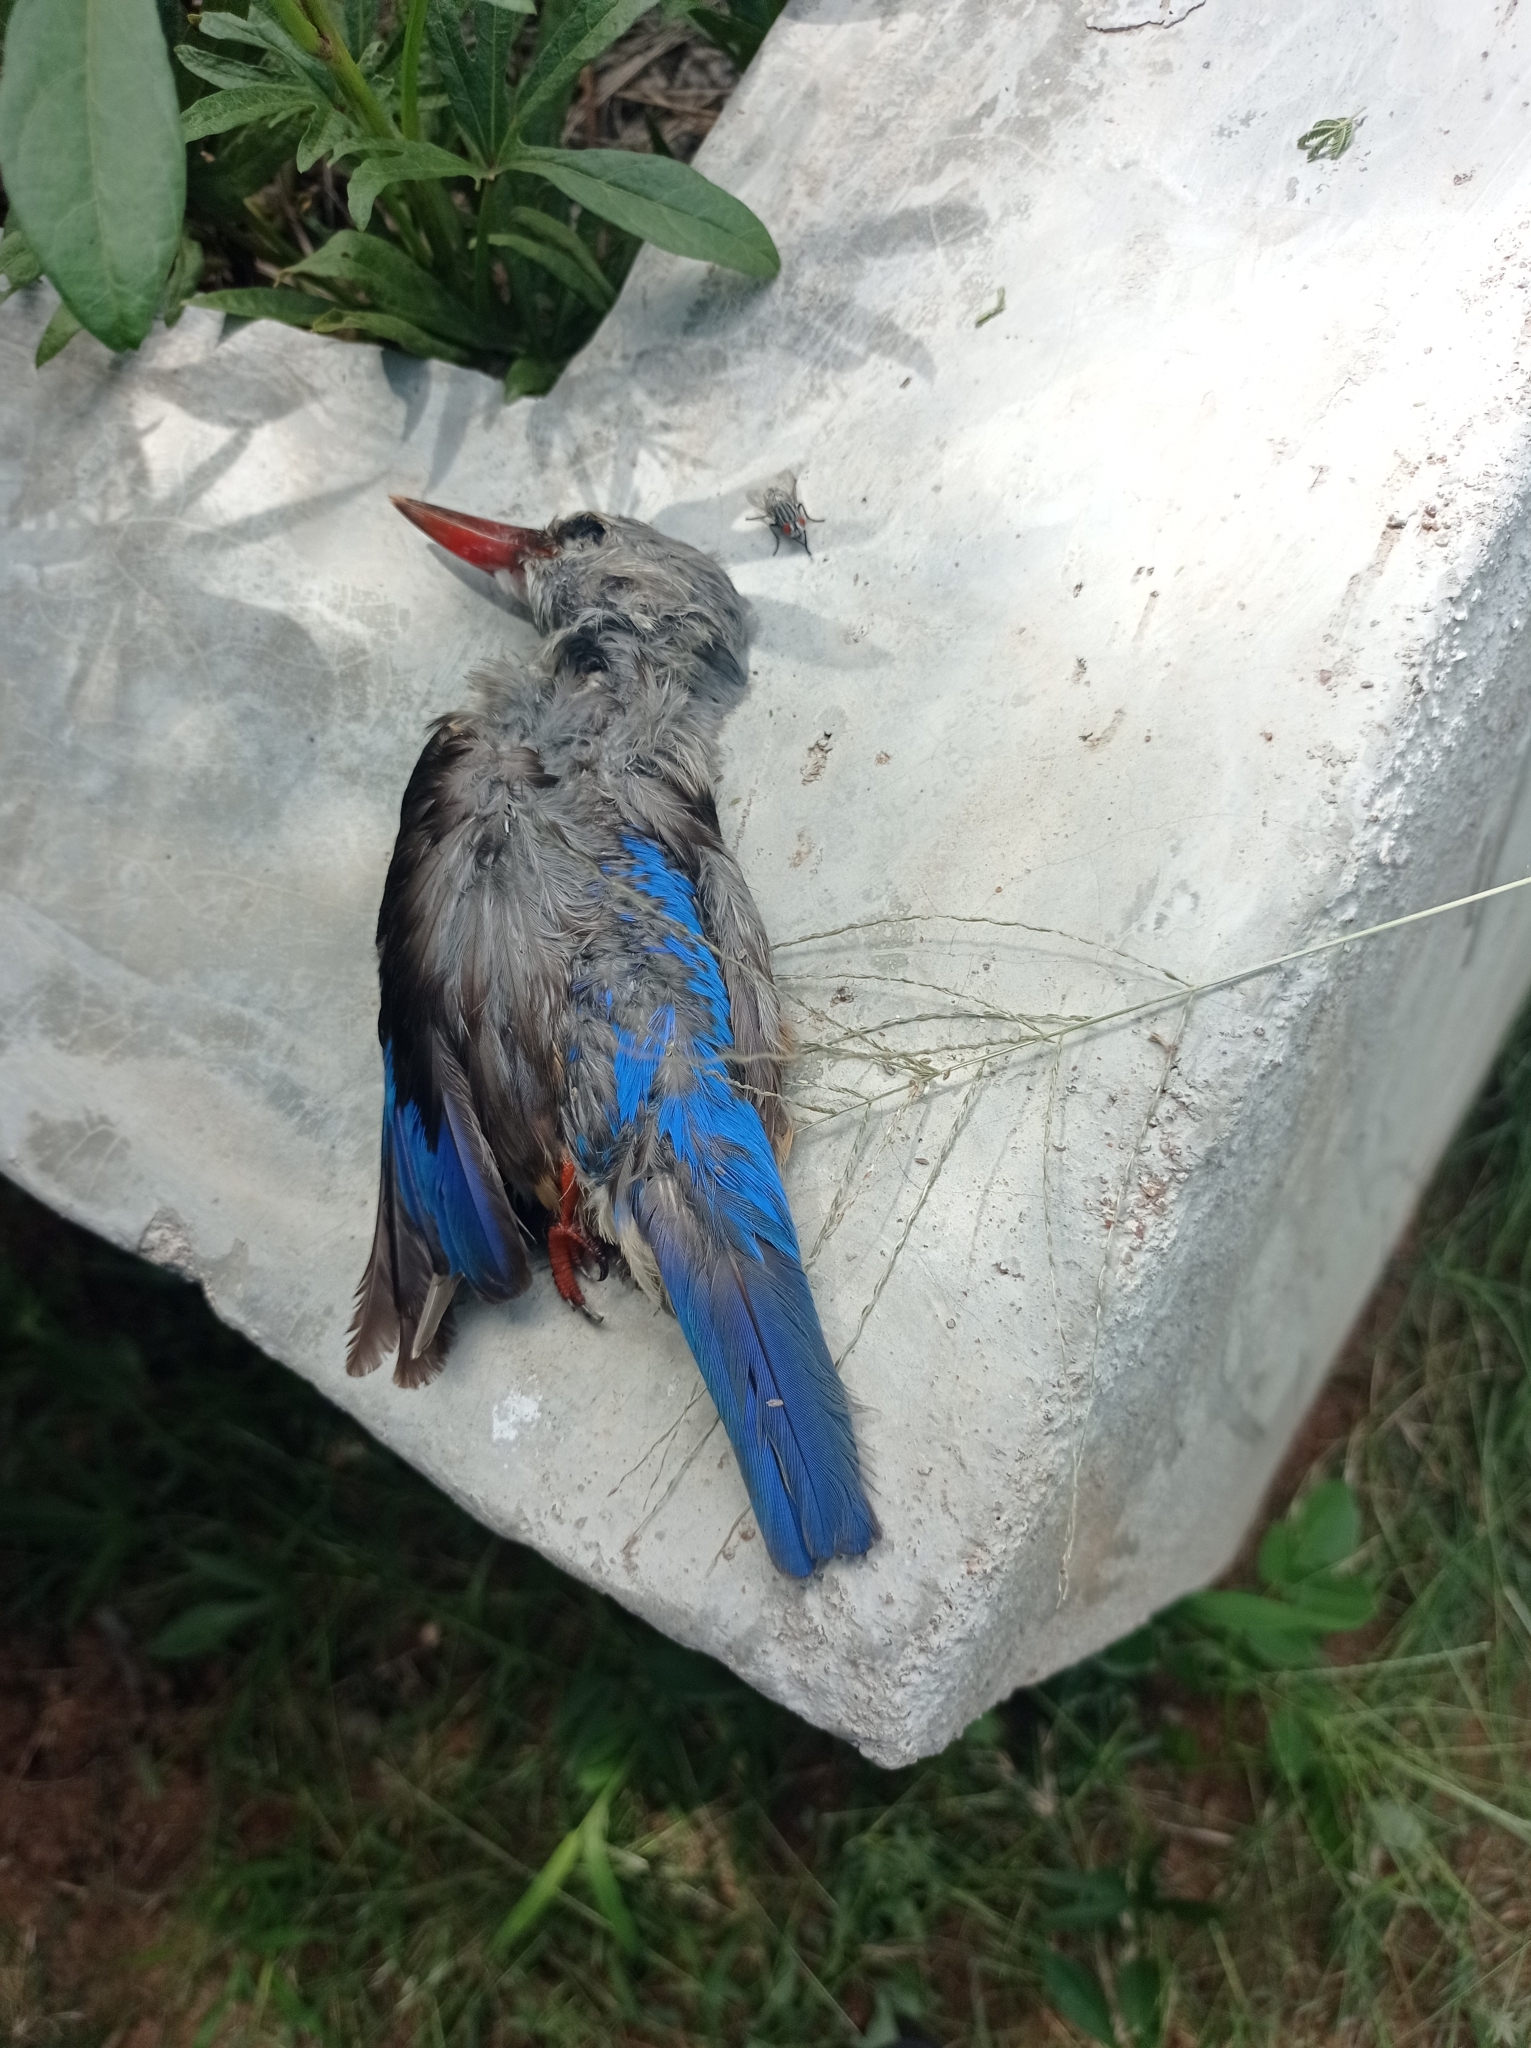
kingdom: Animalia
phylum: Chordata
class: Aves
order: Coraciiformes
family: Alcedinidae
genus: Halcyon
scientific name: Halcyon leucocephala
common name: Grey-headed kingfisher
